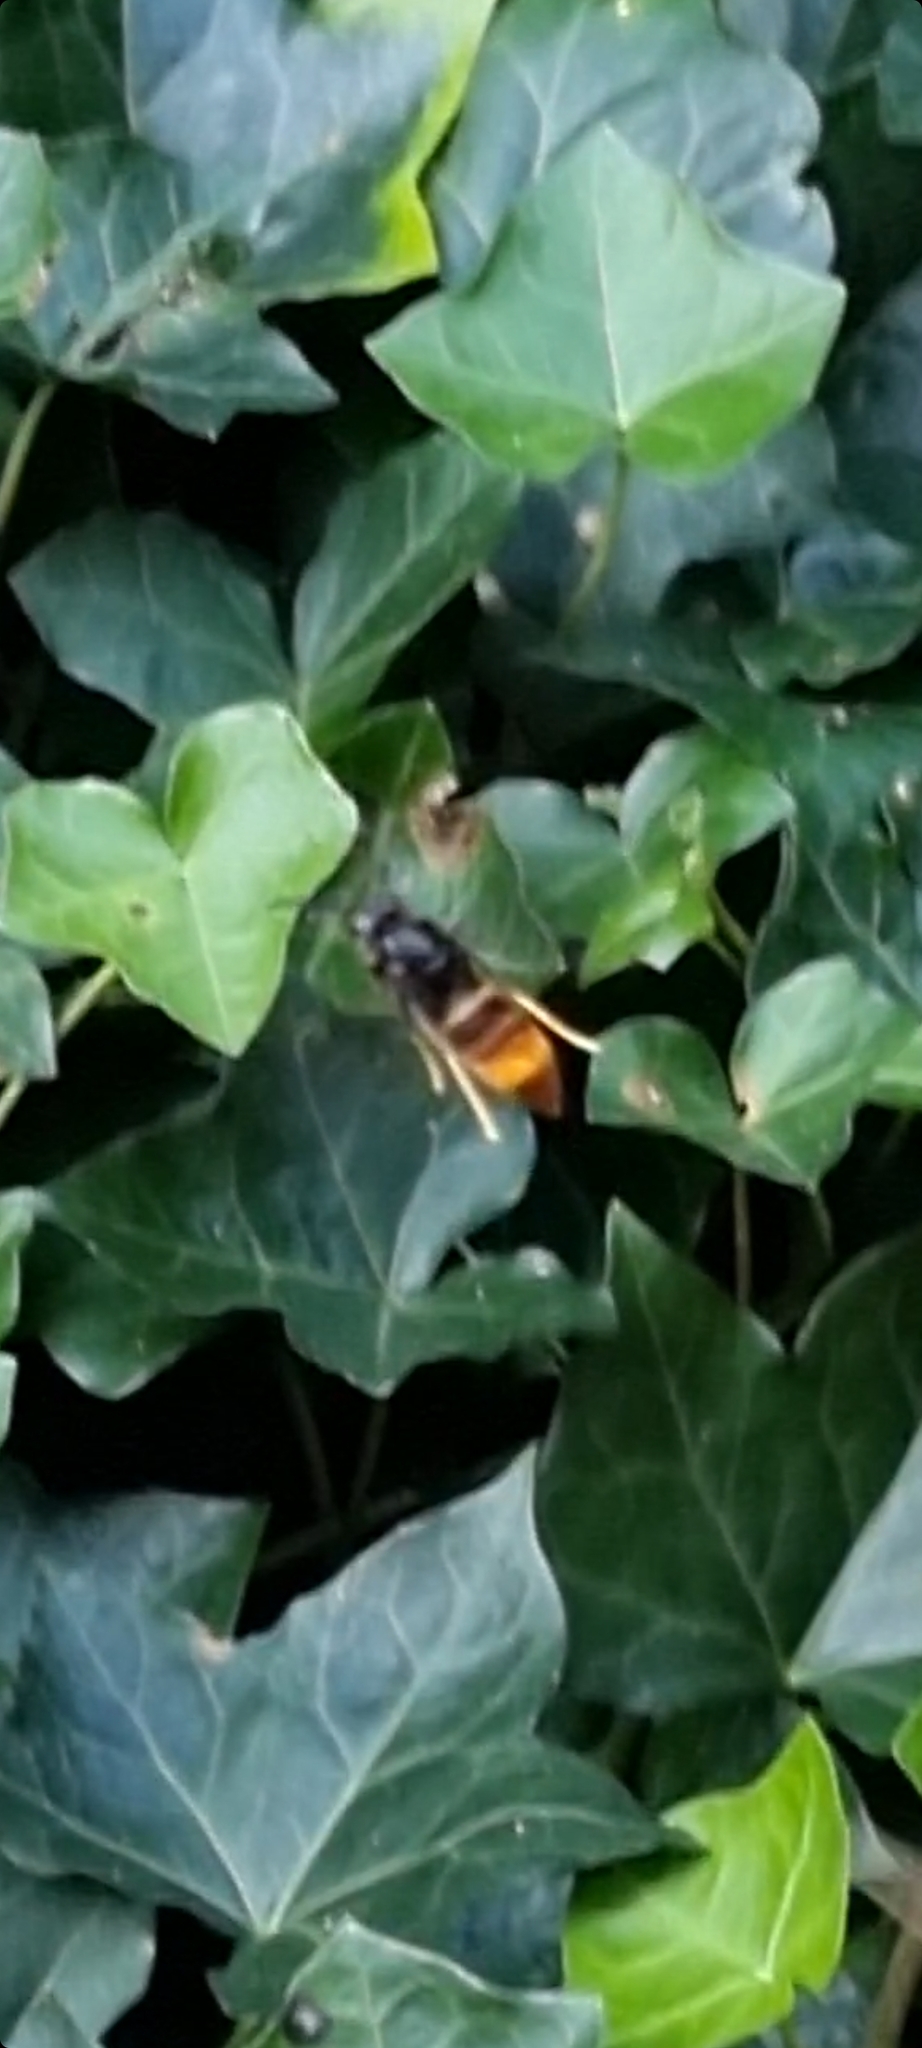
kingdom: Animalia
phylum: Arthropoda
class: Insecta
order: Hymenoptera
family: Vespidae
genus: Vespa
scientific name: Vespa velutina
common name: Asian hornet
